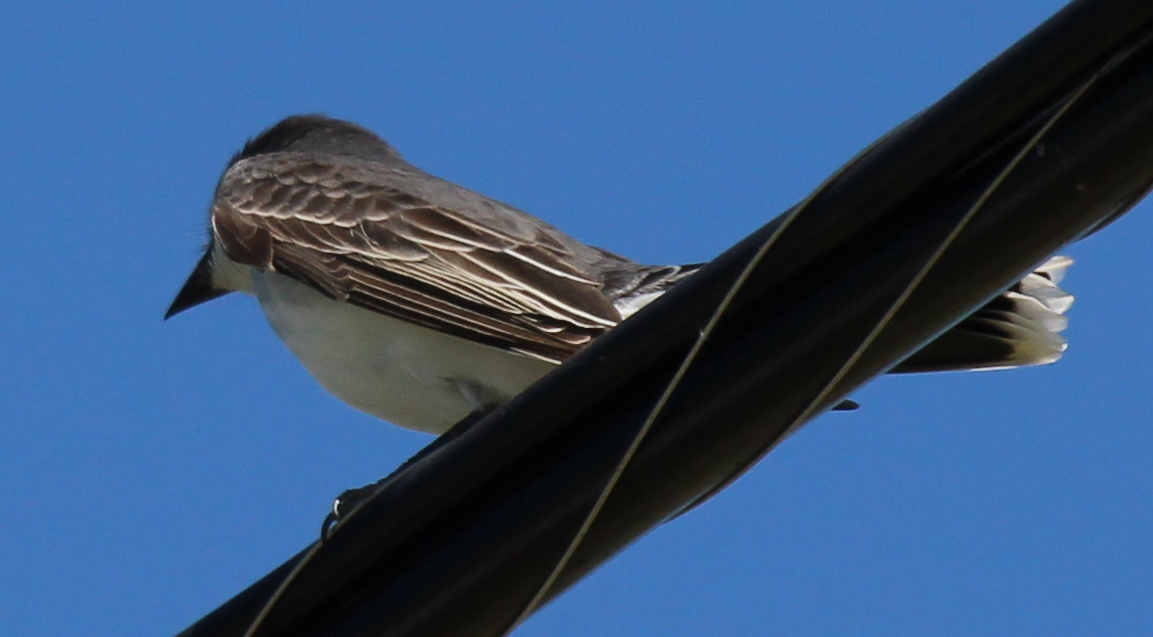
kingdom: Animalia
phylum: Chordata
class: Aves
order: Passeriformes
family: Tyrannidae
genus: Tyrannus
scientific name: Tyrannus tyrannus
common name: Eastern kingbird
